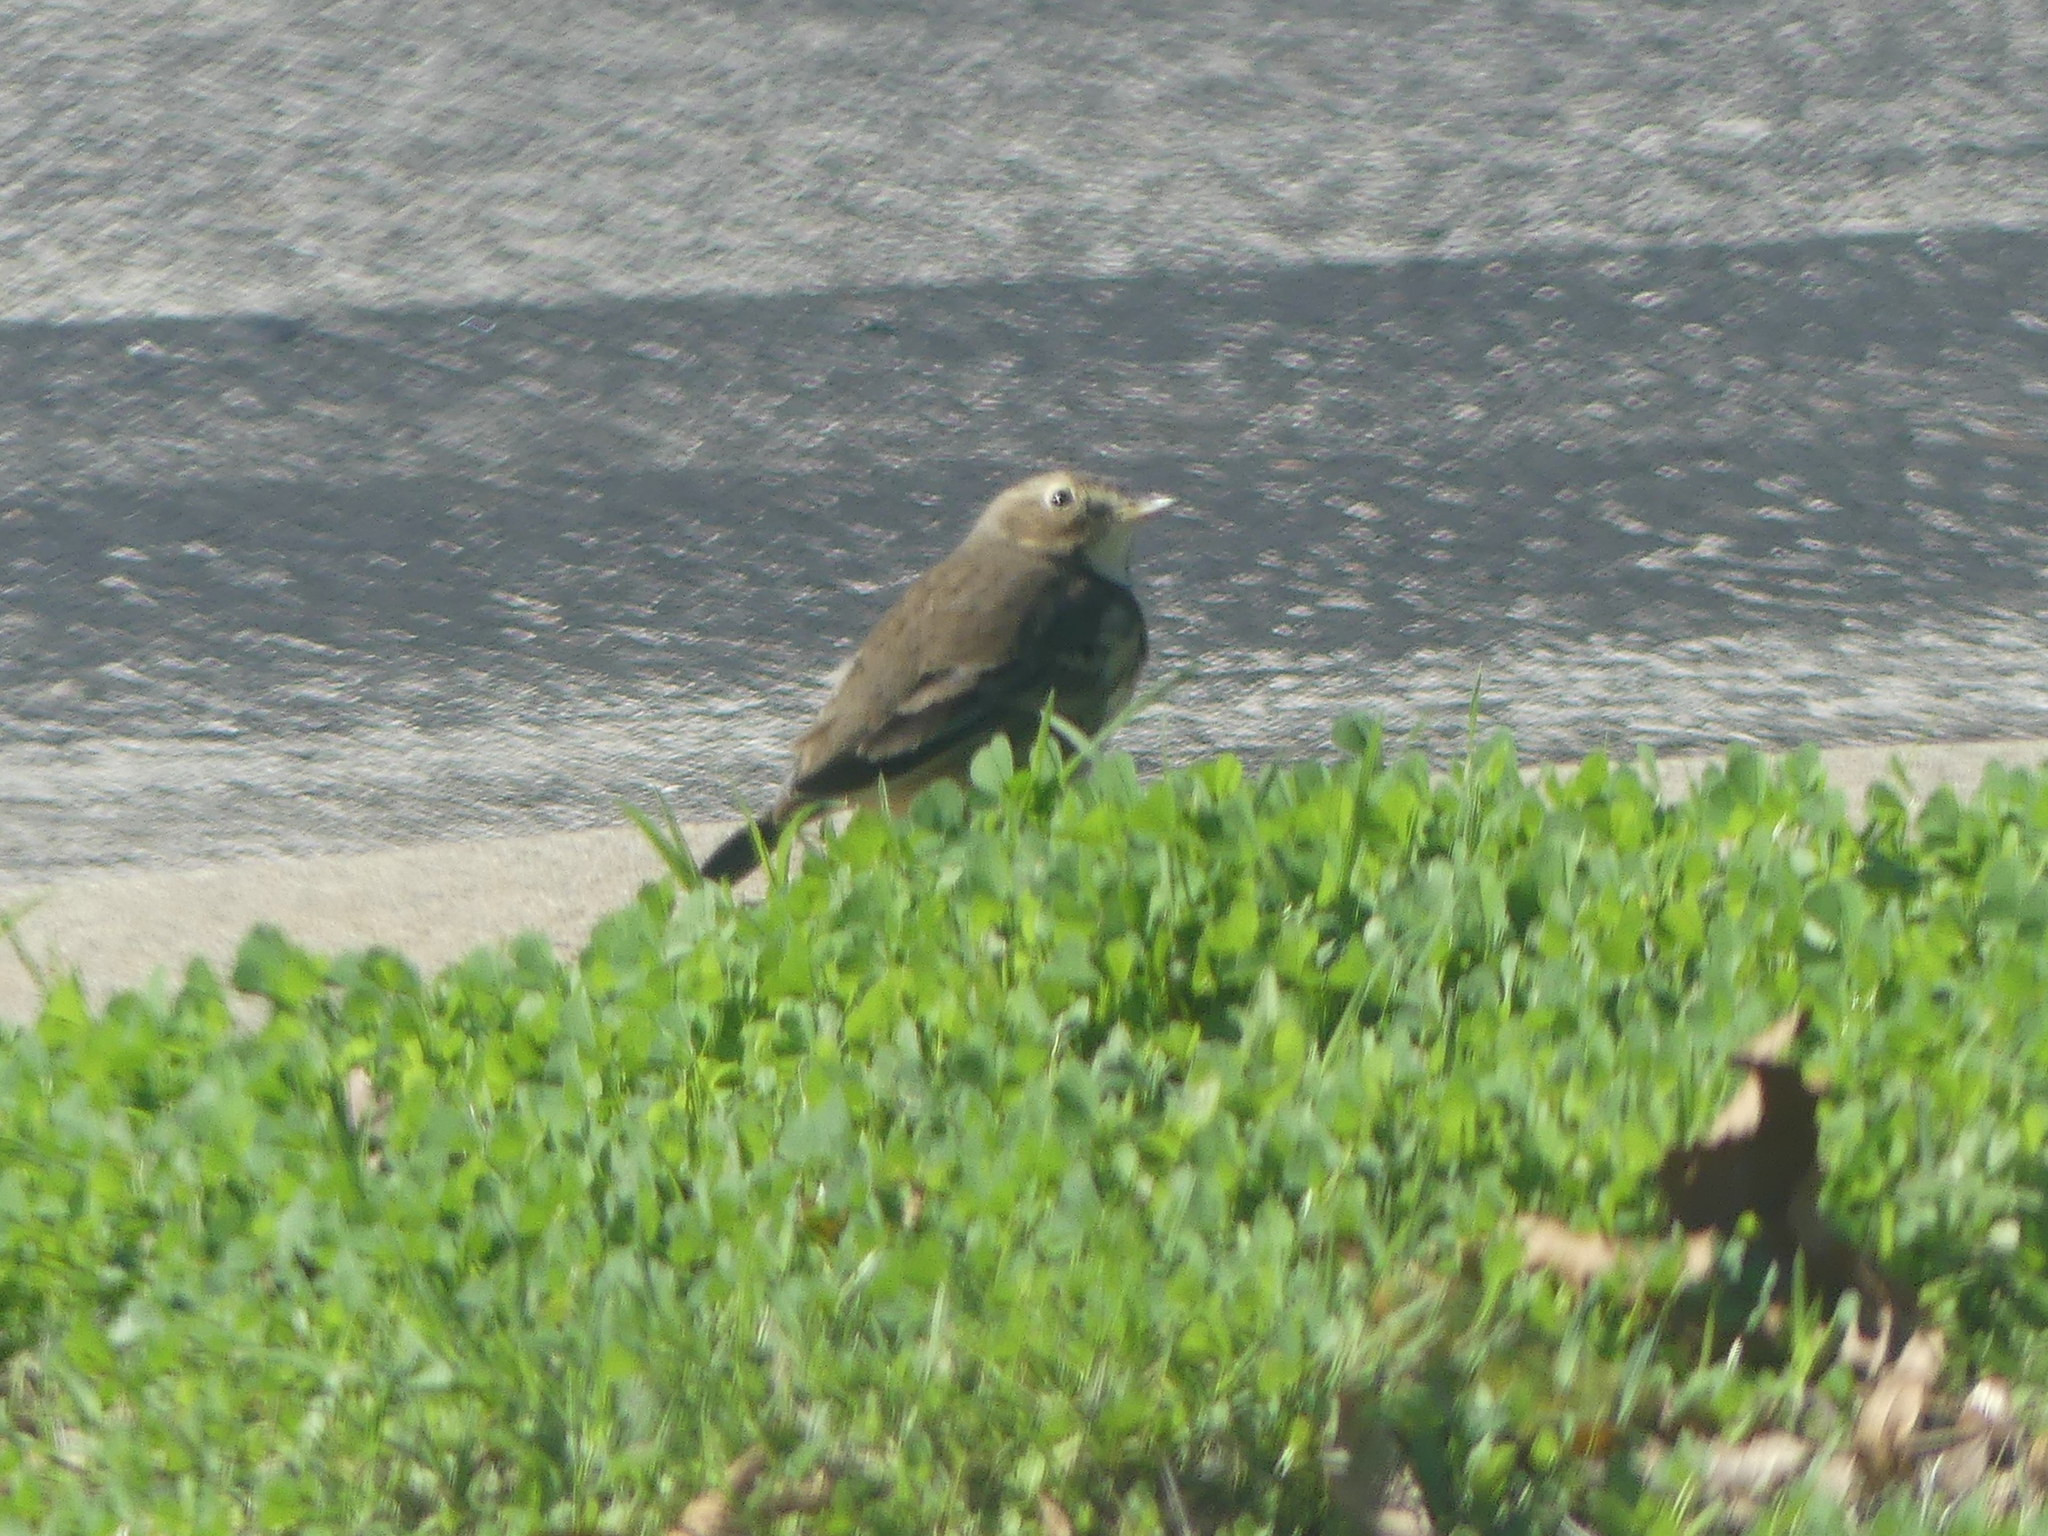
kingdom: Animalia
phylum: Chordata
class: Aves
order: Passeriformes
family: Motacillidae
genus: Anthus
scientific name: Anthus rubescens
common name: Buff-bellied pipit
